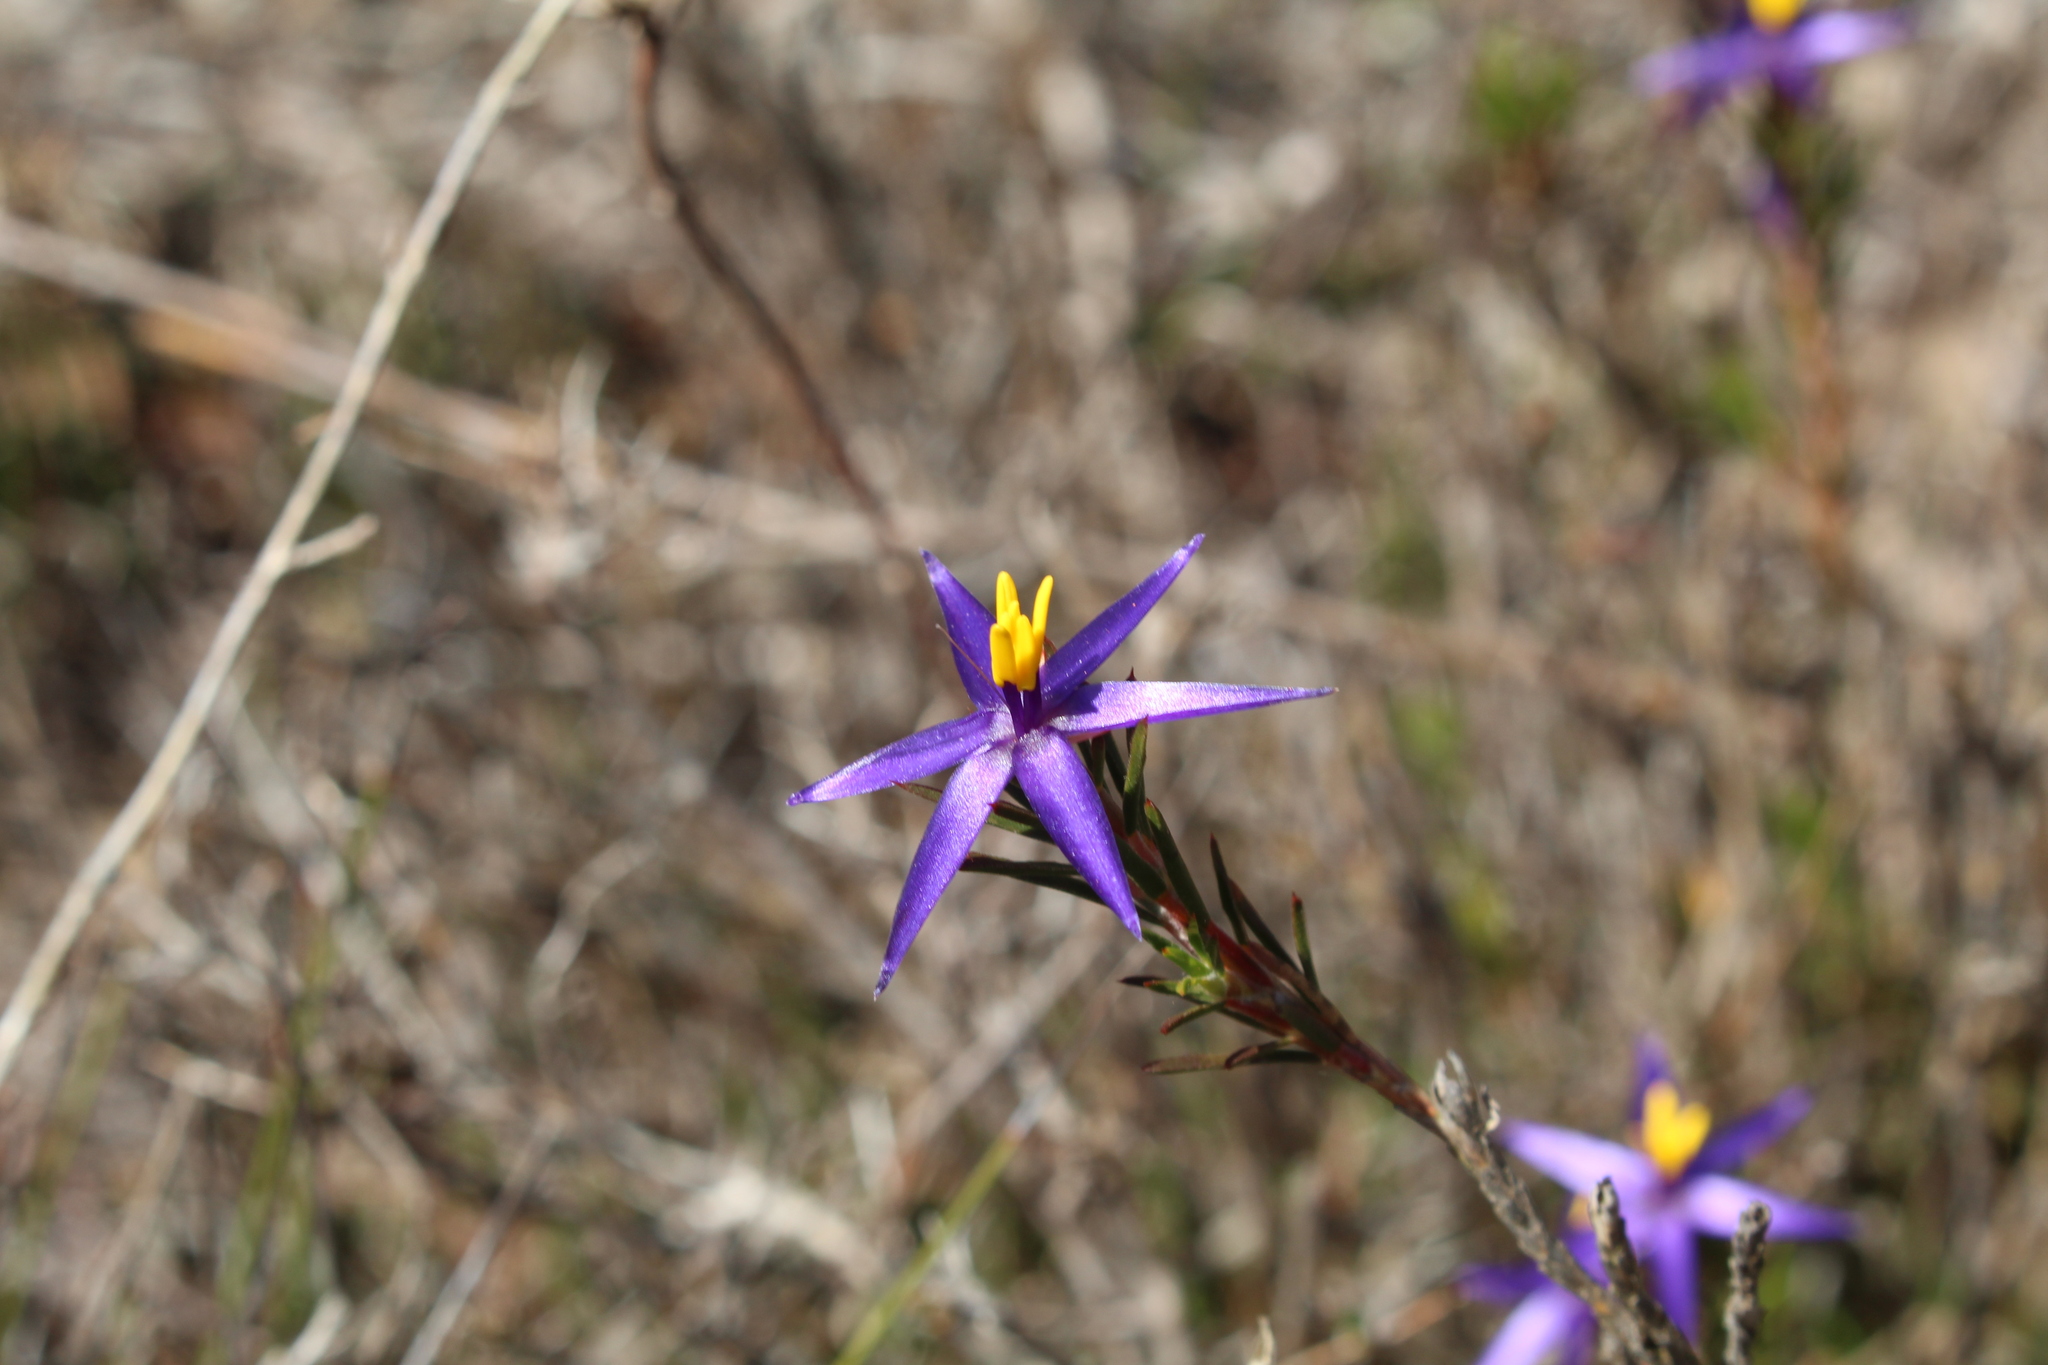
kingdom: Plantae
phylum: Tracheophyta
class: Liliopsida
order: Arecales
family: Dasypogonaceae
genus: Calectasia
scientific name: Calectasia demarzii
